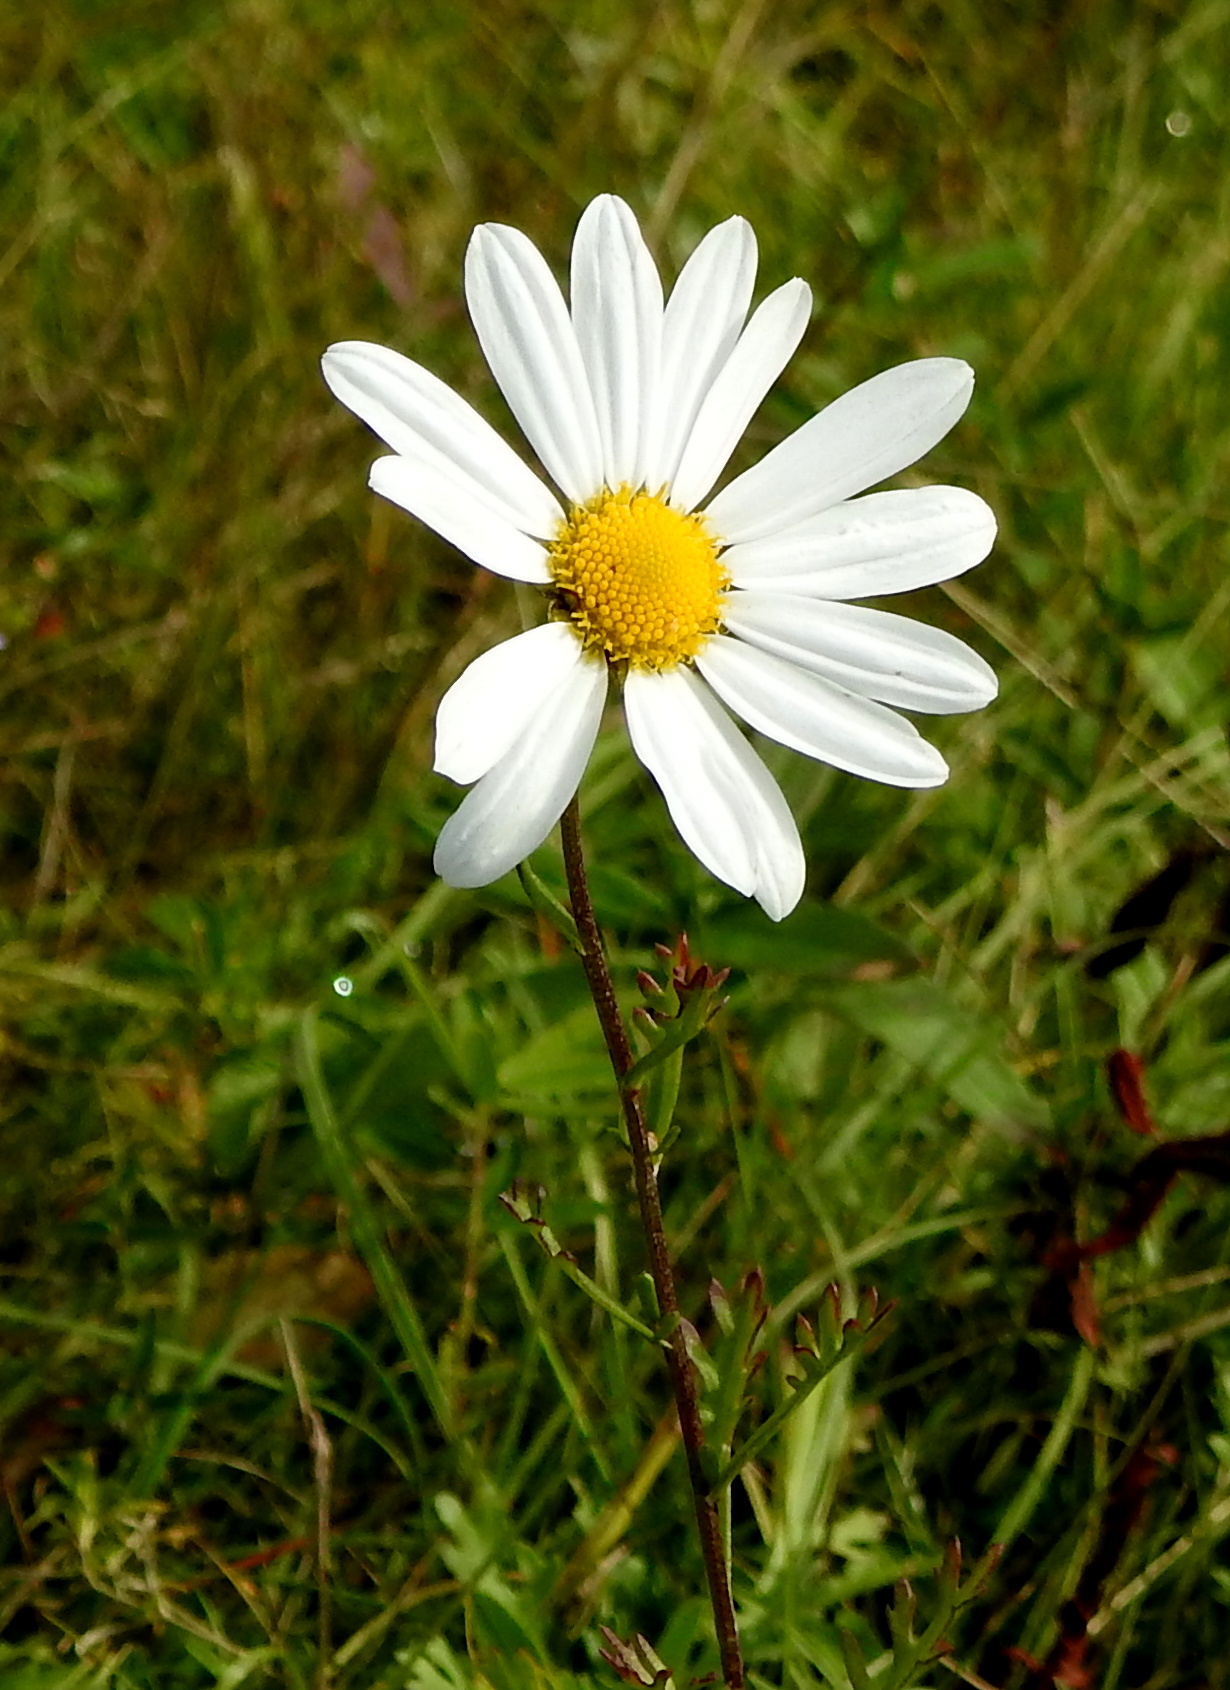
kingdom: Plantae
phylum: Tracheophyta
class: Magnoliopsida
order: Asterales
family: Asteraceae
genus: Chrysanthemum
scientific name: Chrysanthemum zawadzkii
